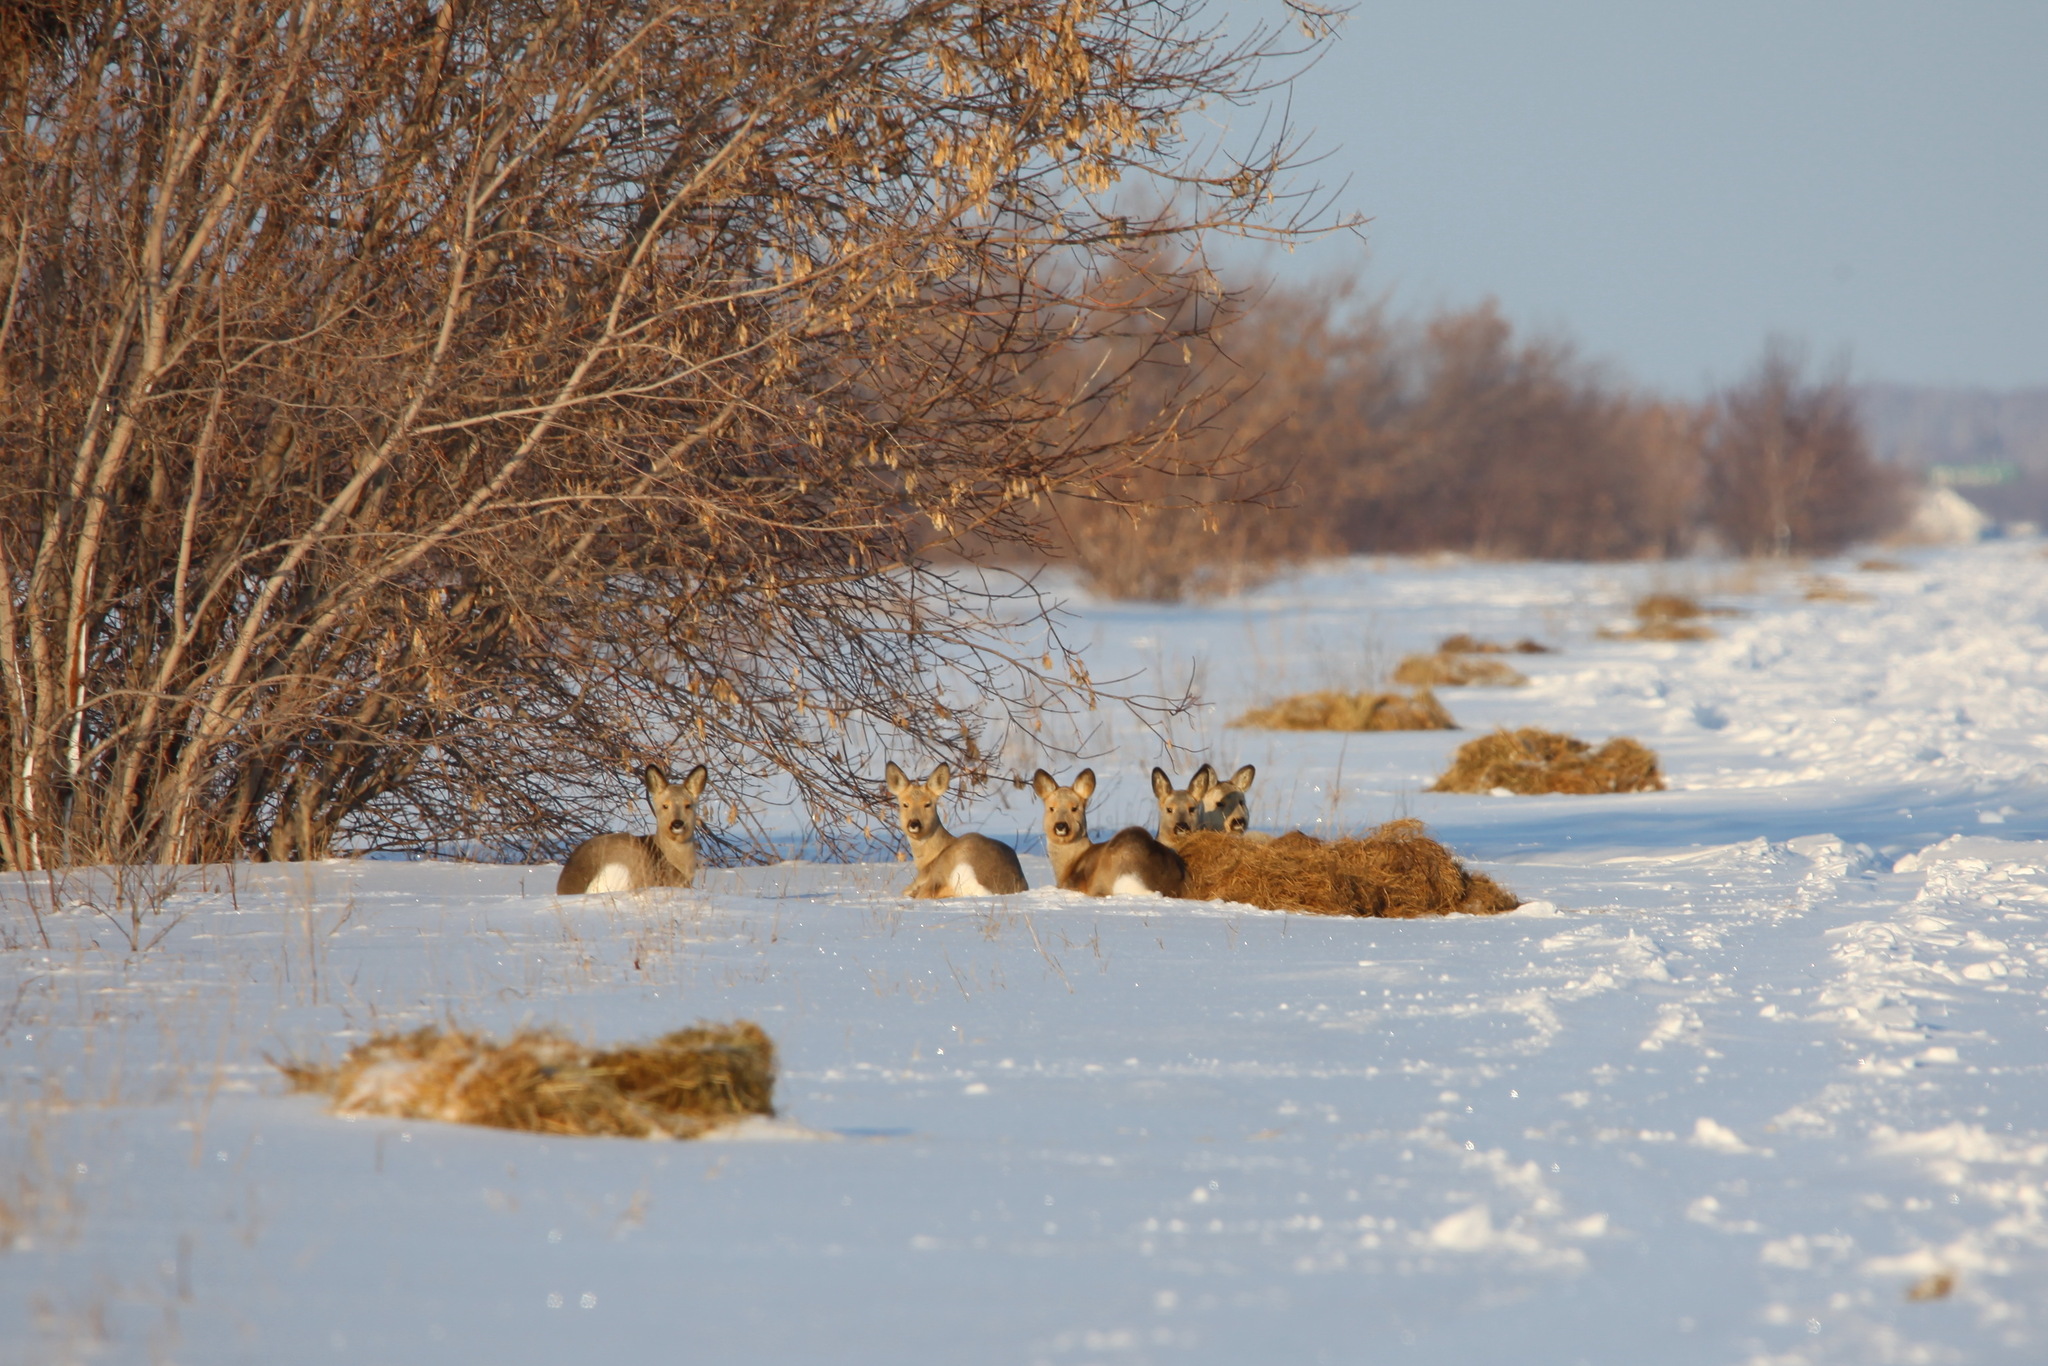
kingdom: Animalia
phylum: Chordata
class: Mammalia
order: Artiodactyla
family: Cervidae
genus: Capreolus
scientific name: Capreolus pygargus
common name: Siberian roe
